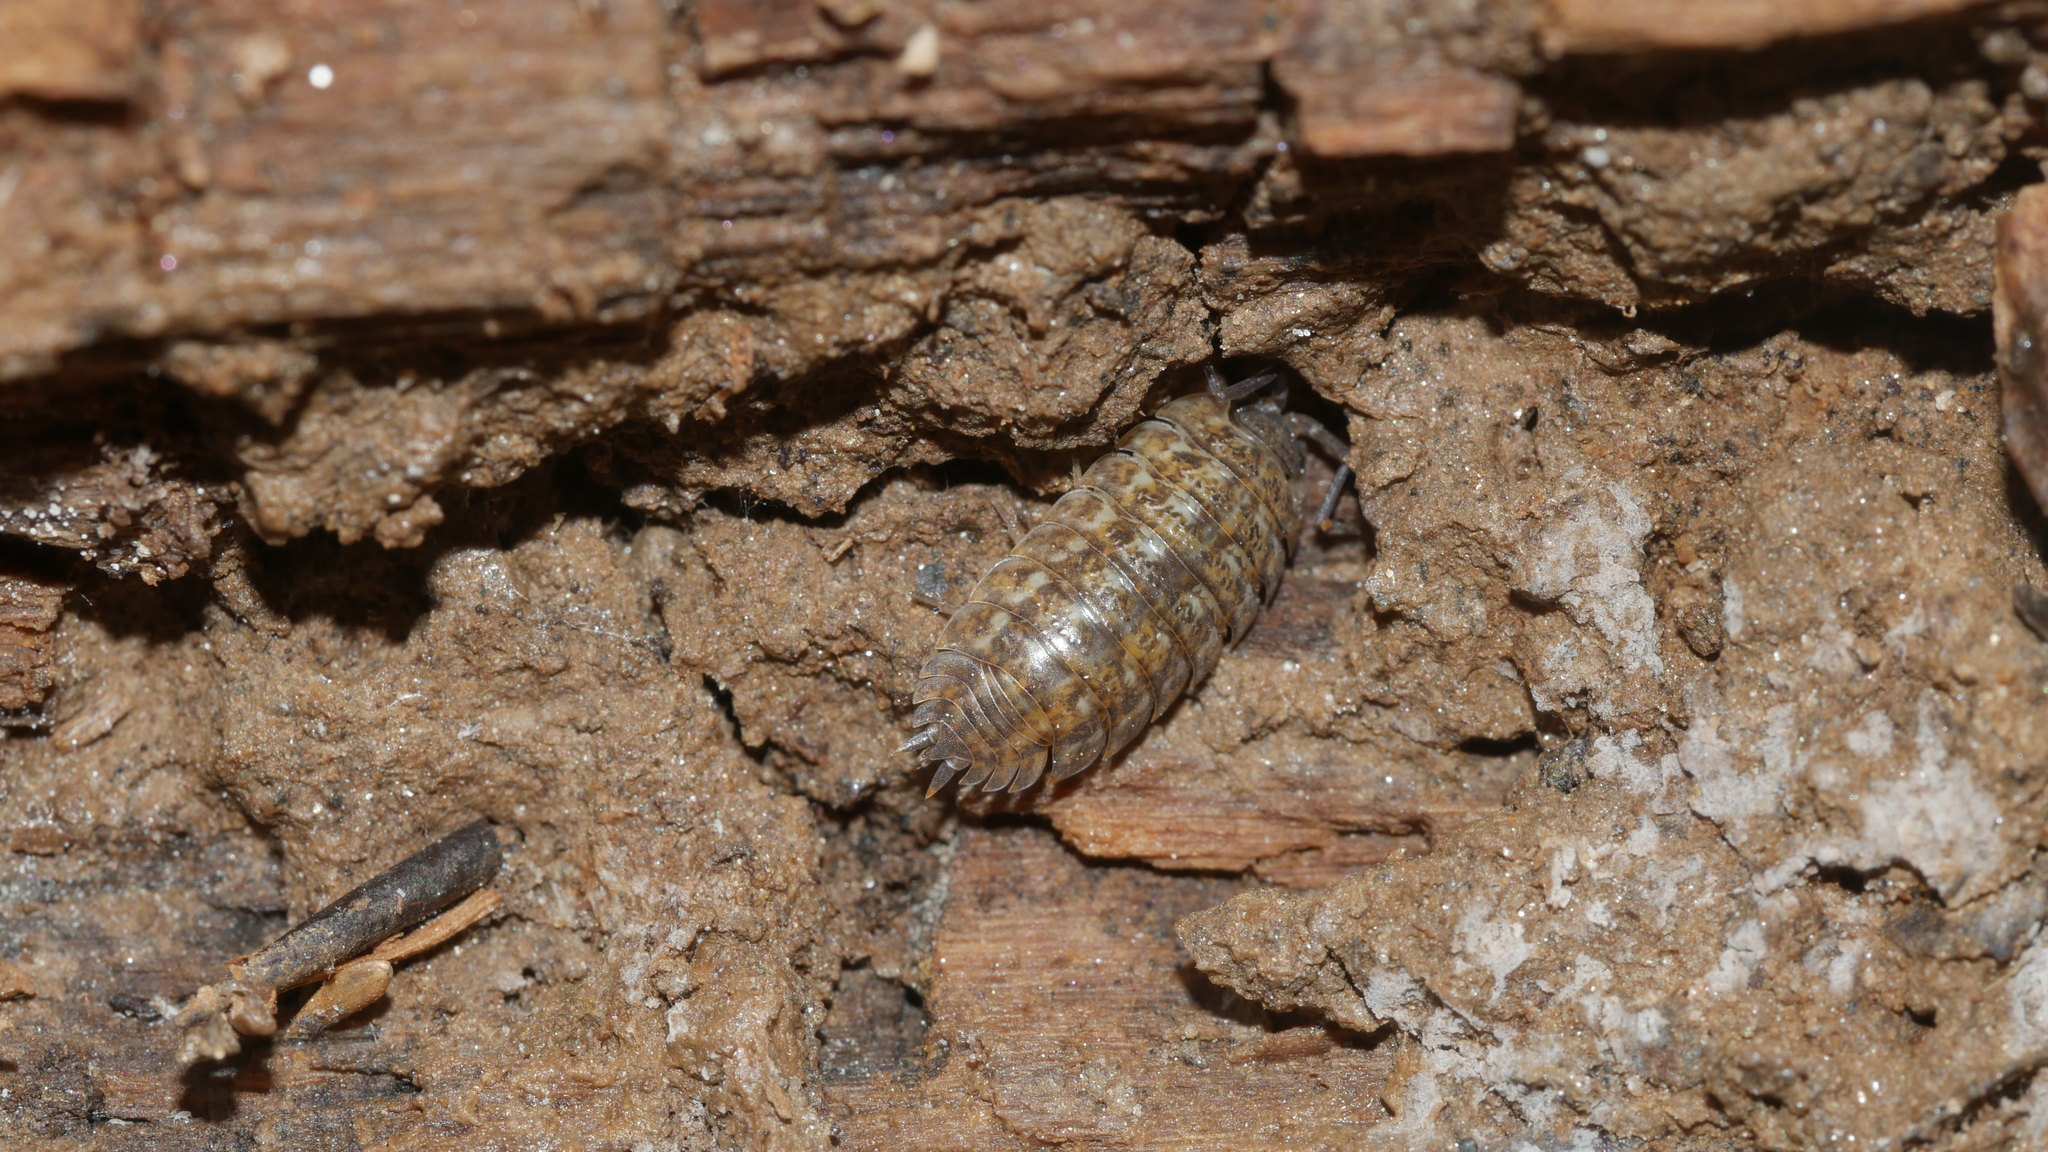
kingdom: Animalia
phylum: Arthropoda
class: Malacostraca
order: Isopoda
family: Trachelipodidae
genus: Trachelipus
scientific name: Trachelipus rathkii
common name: Isopod
